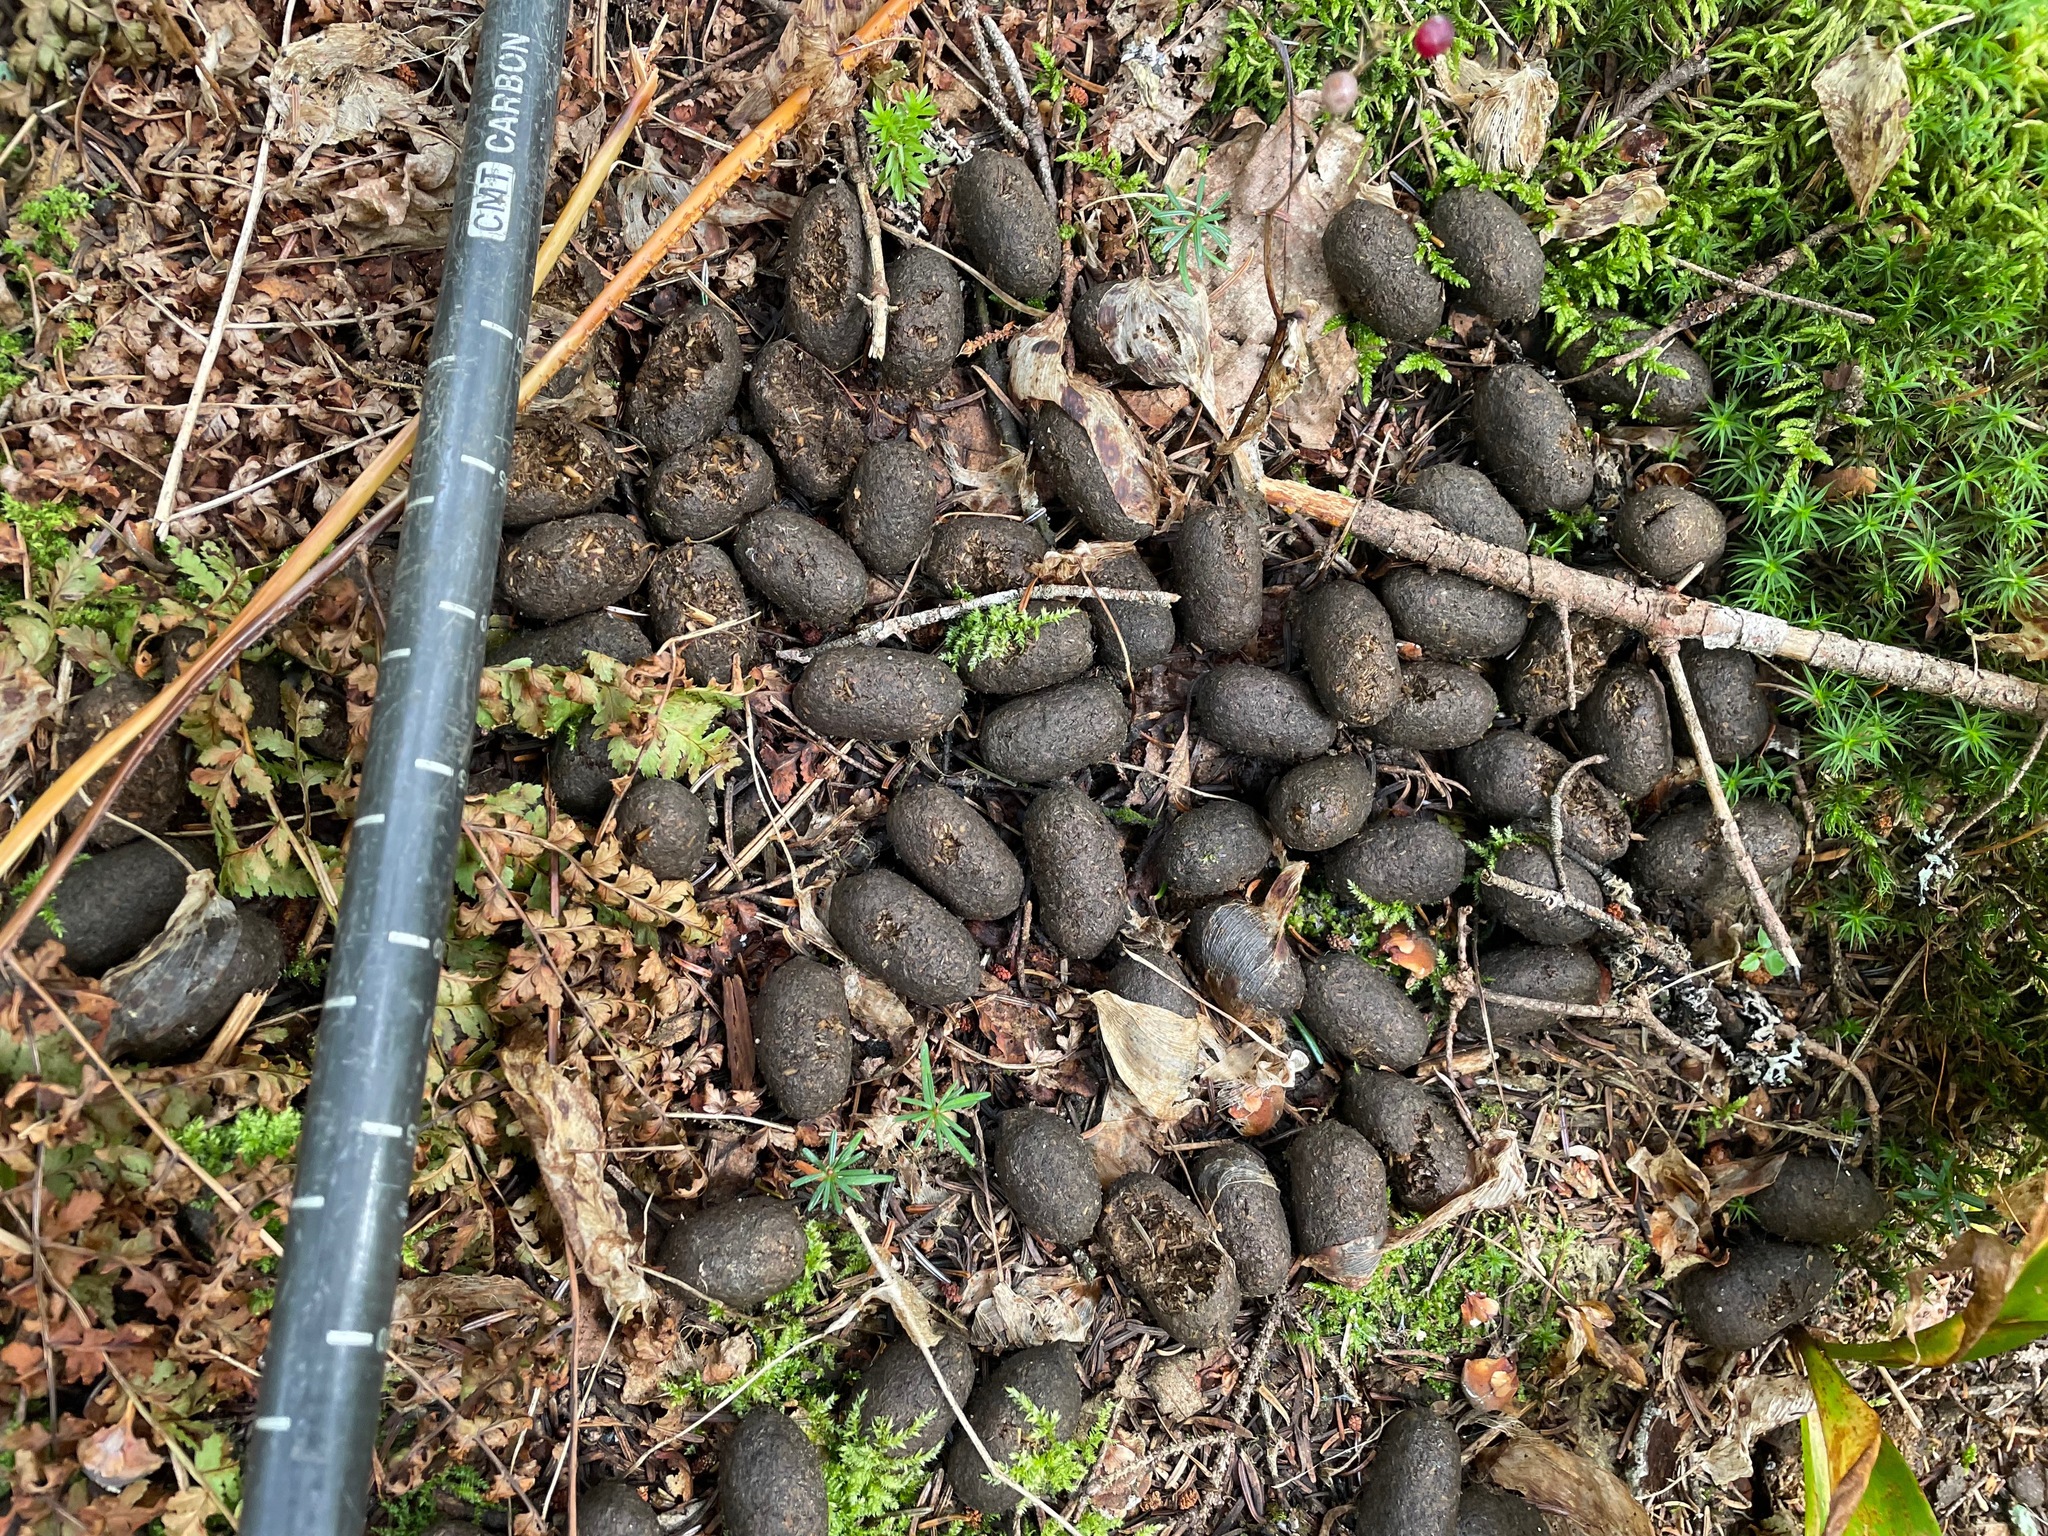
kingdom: Animalia
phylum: Chordata
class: Mammalia
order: Artiodactyla
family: Cervidae
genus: Alces
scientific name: Alces alces
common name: Moose
